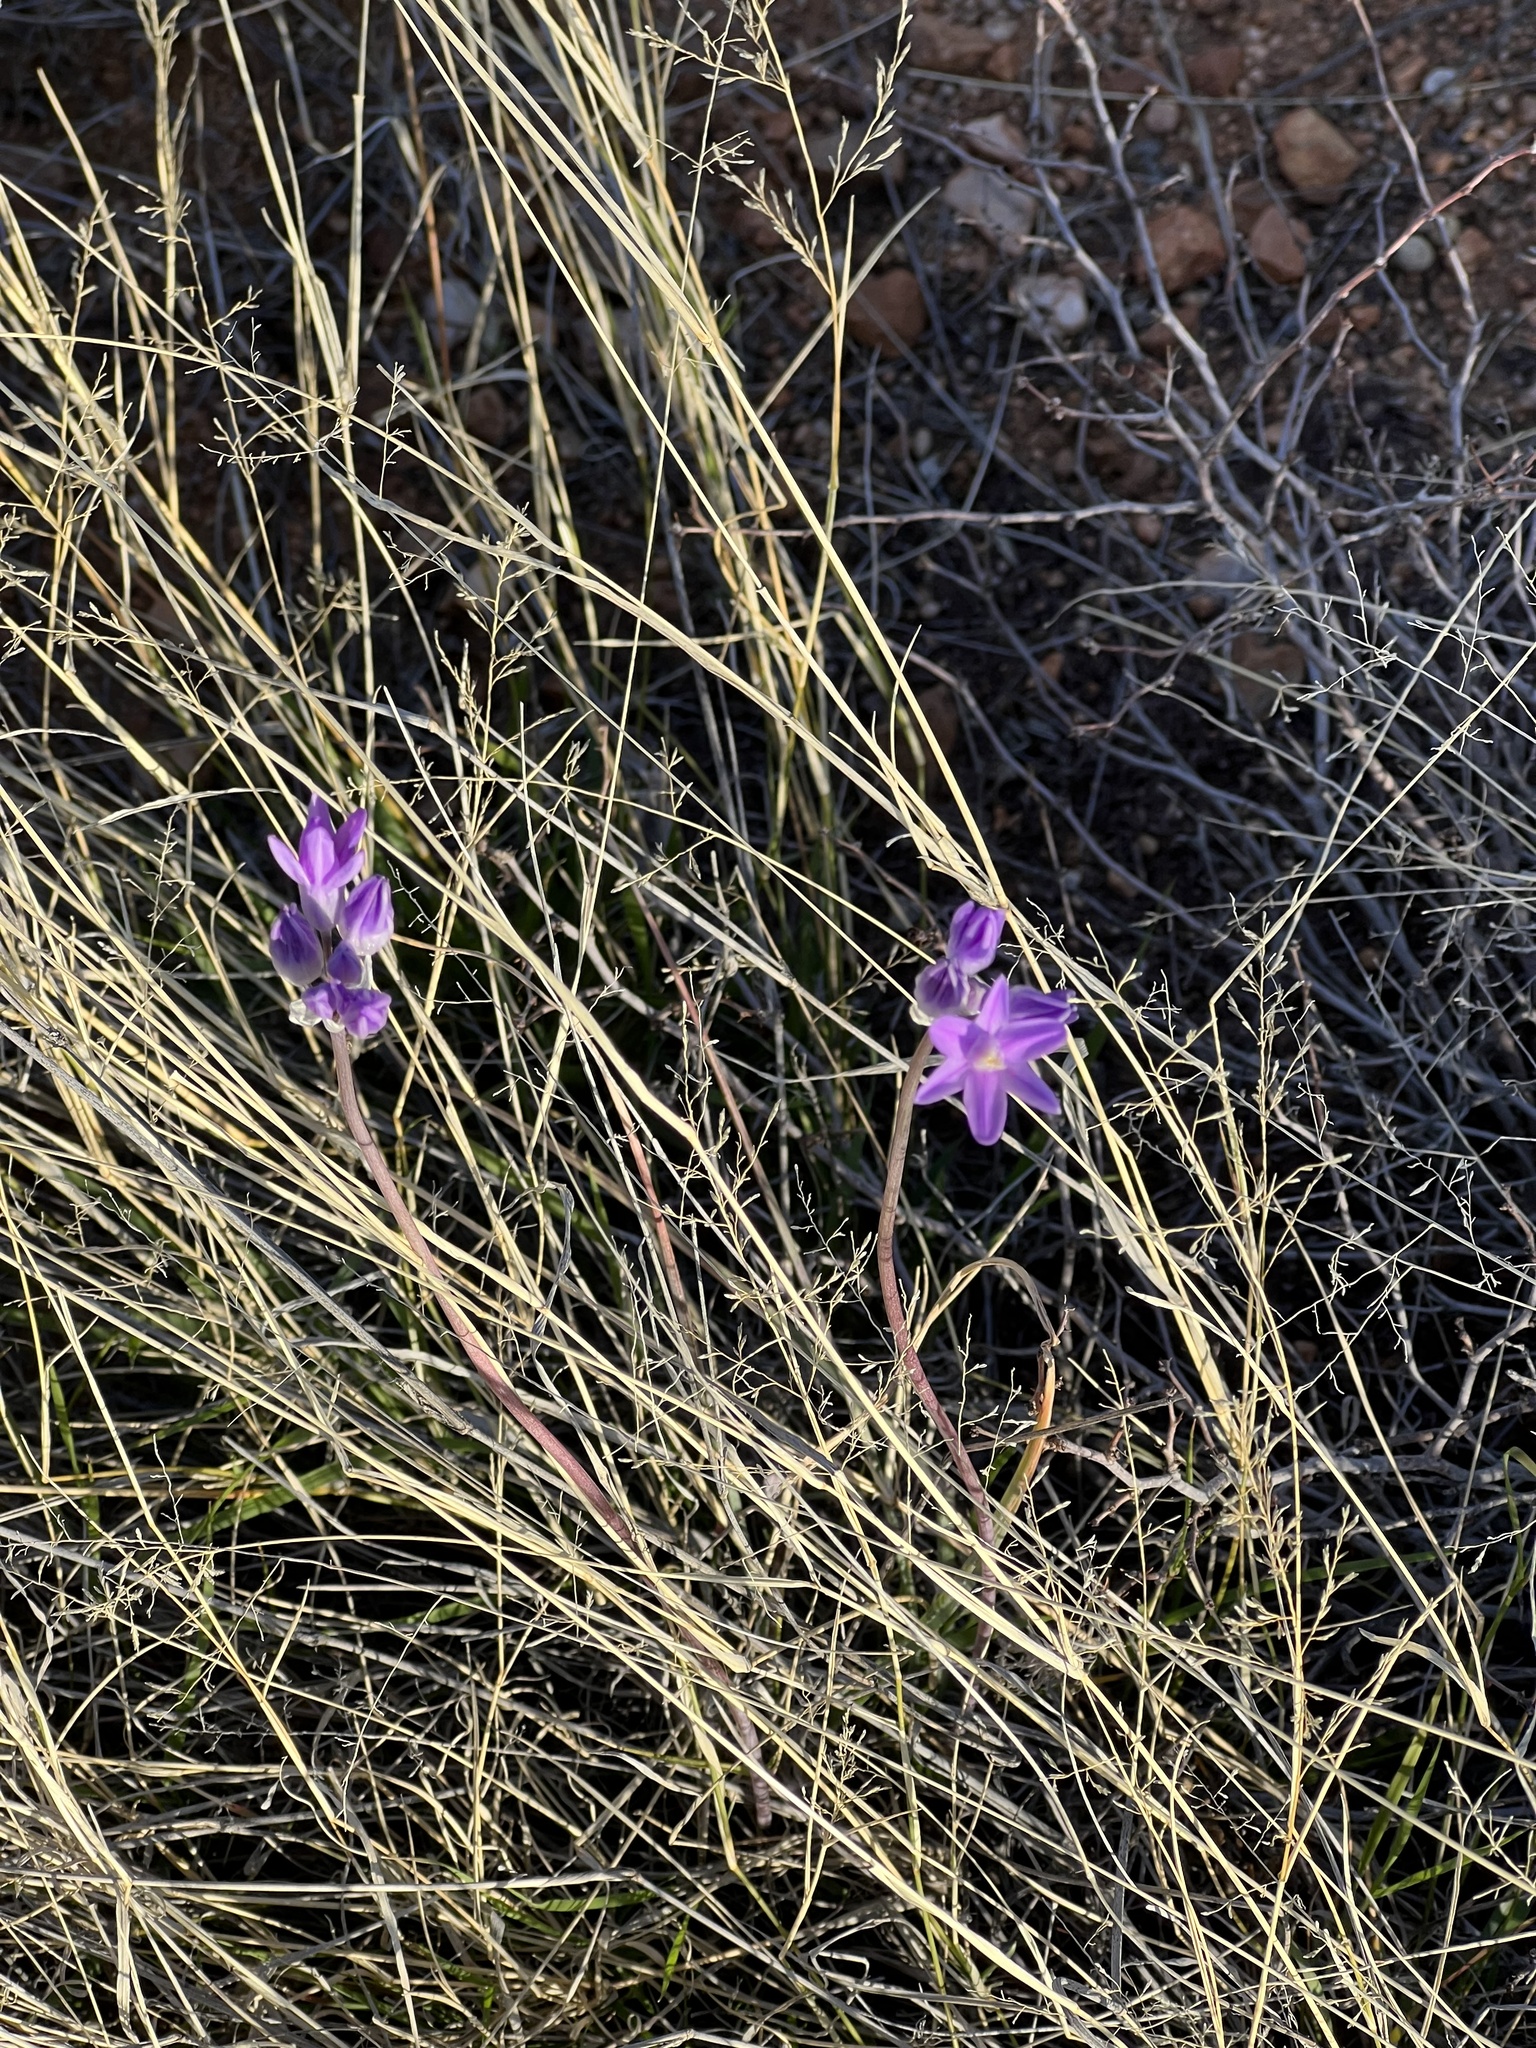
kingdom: Plantae
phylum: Tracheophyta
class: Liliopsida
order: Asparagales
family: Asparagaceae
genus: Dipterostemon
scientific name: Dipterostemon capitatus
